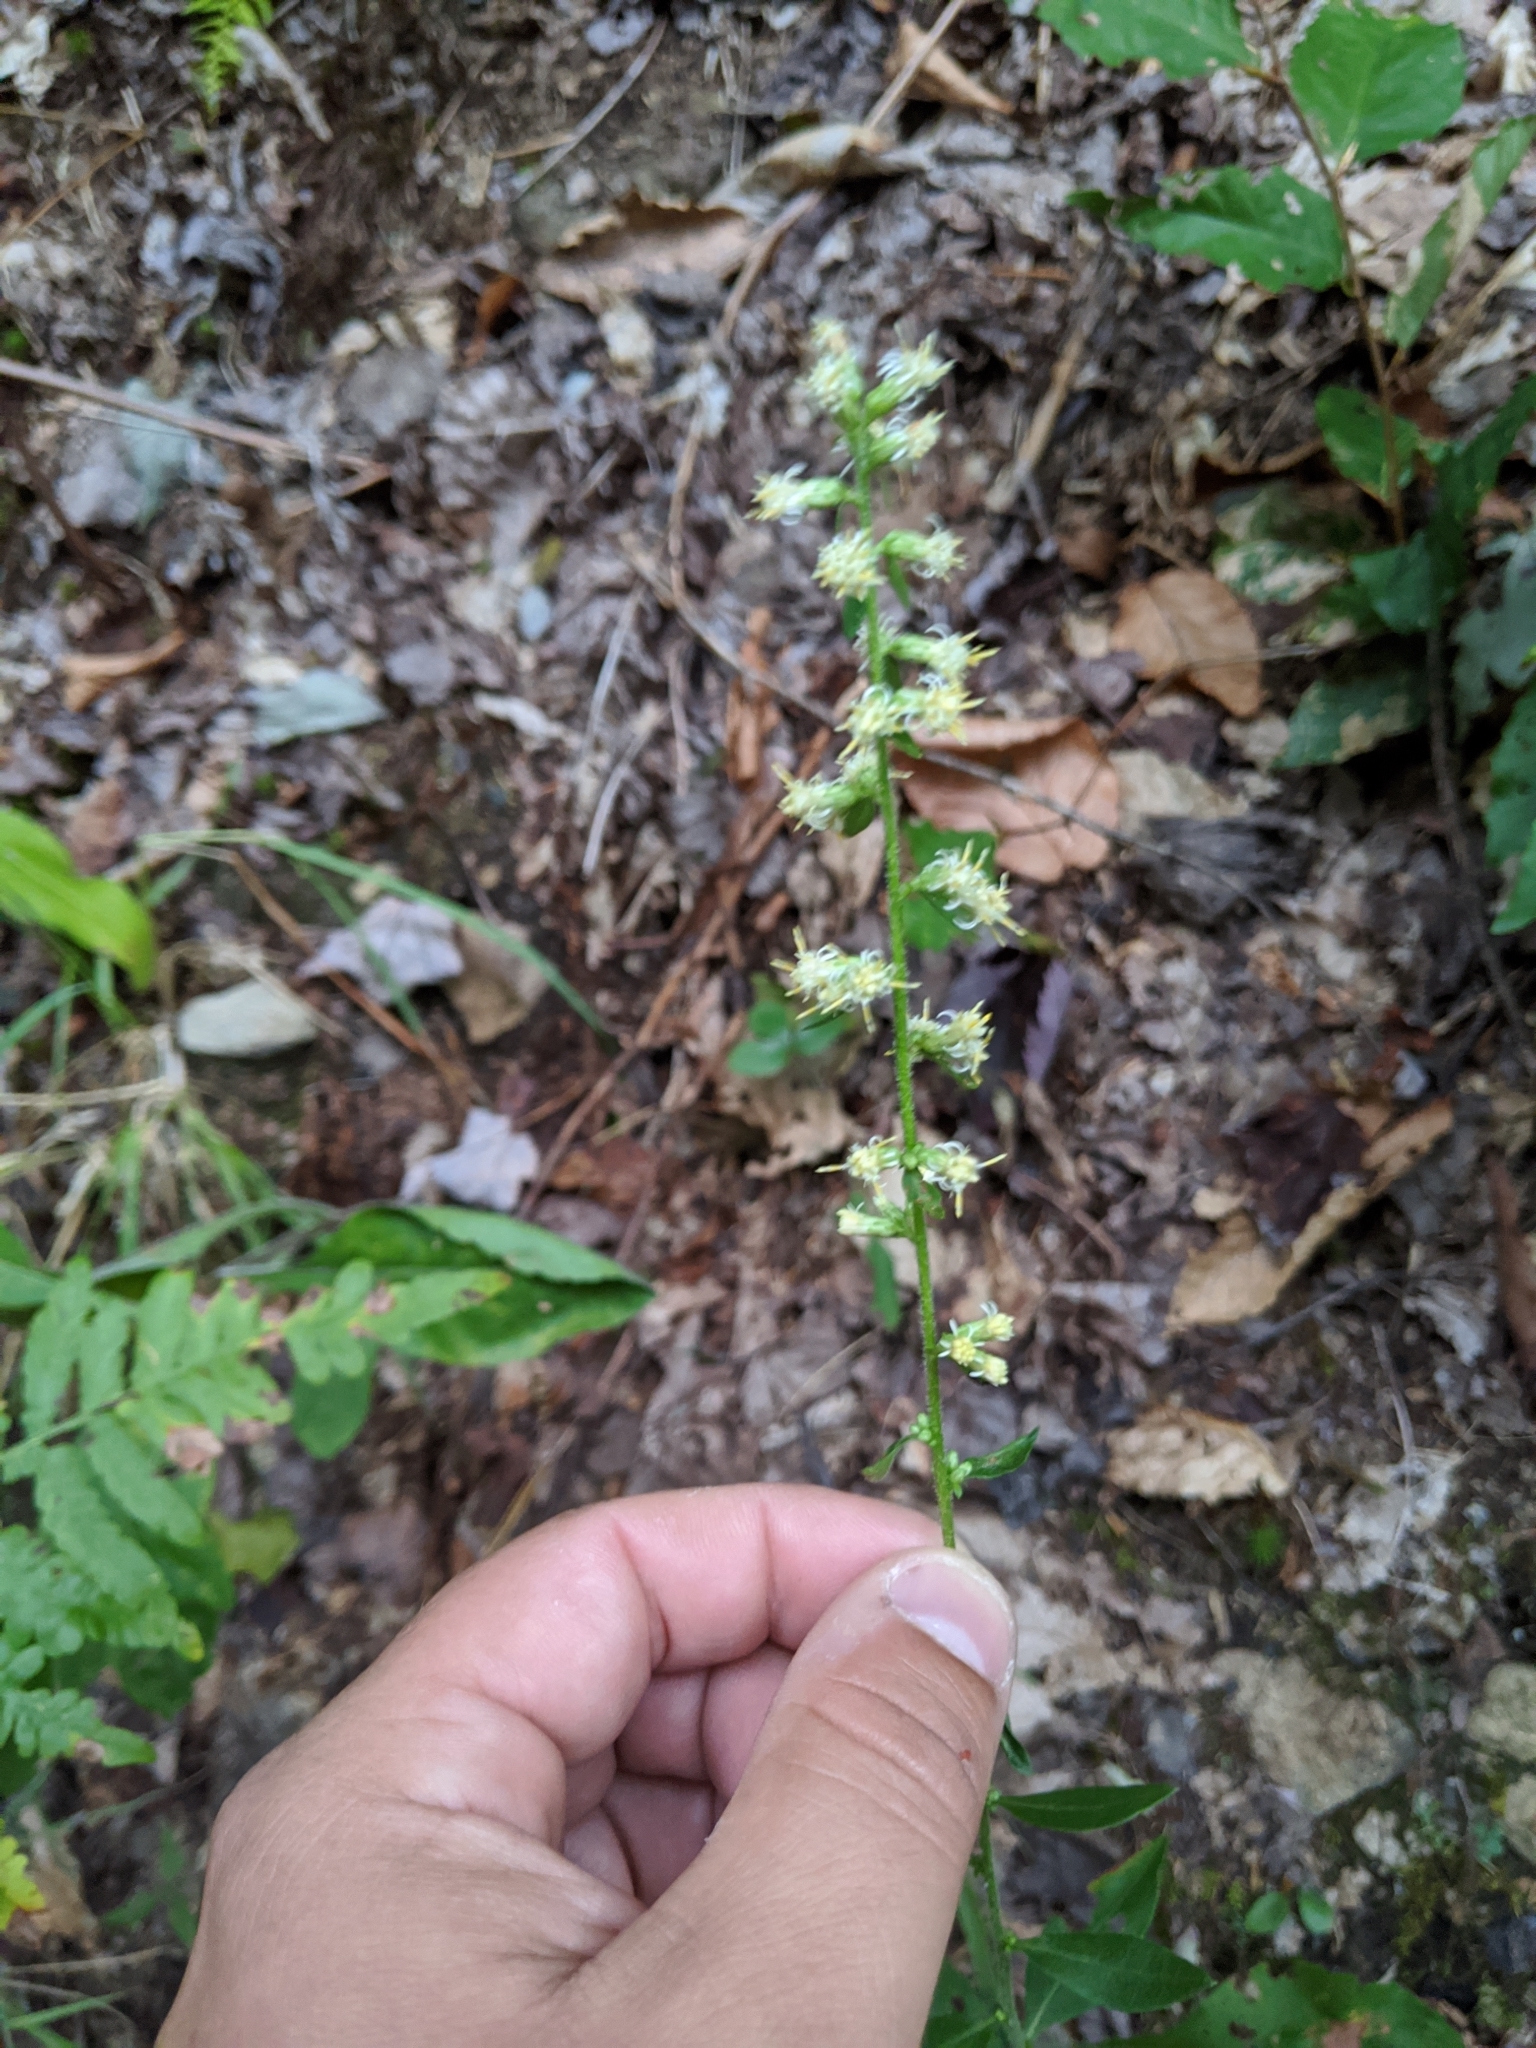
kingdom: Plantae
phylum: Tracheophyta
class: Magnoliopsida
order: Asterales
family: Asteraceae
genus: Solidago
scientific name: Solidago bicolor
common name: Silverrod
